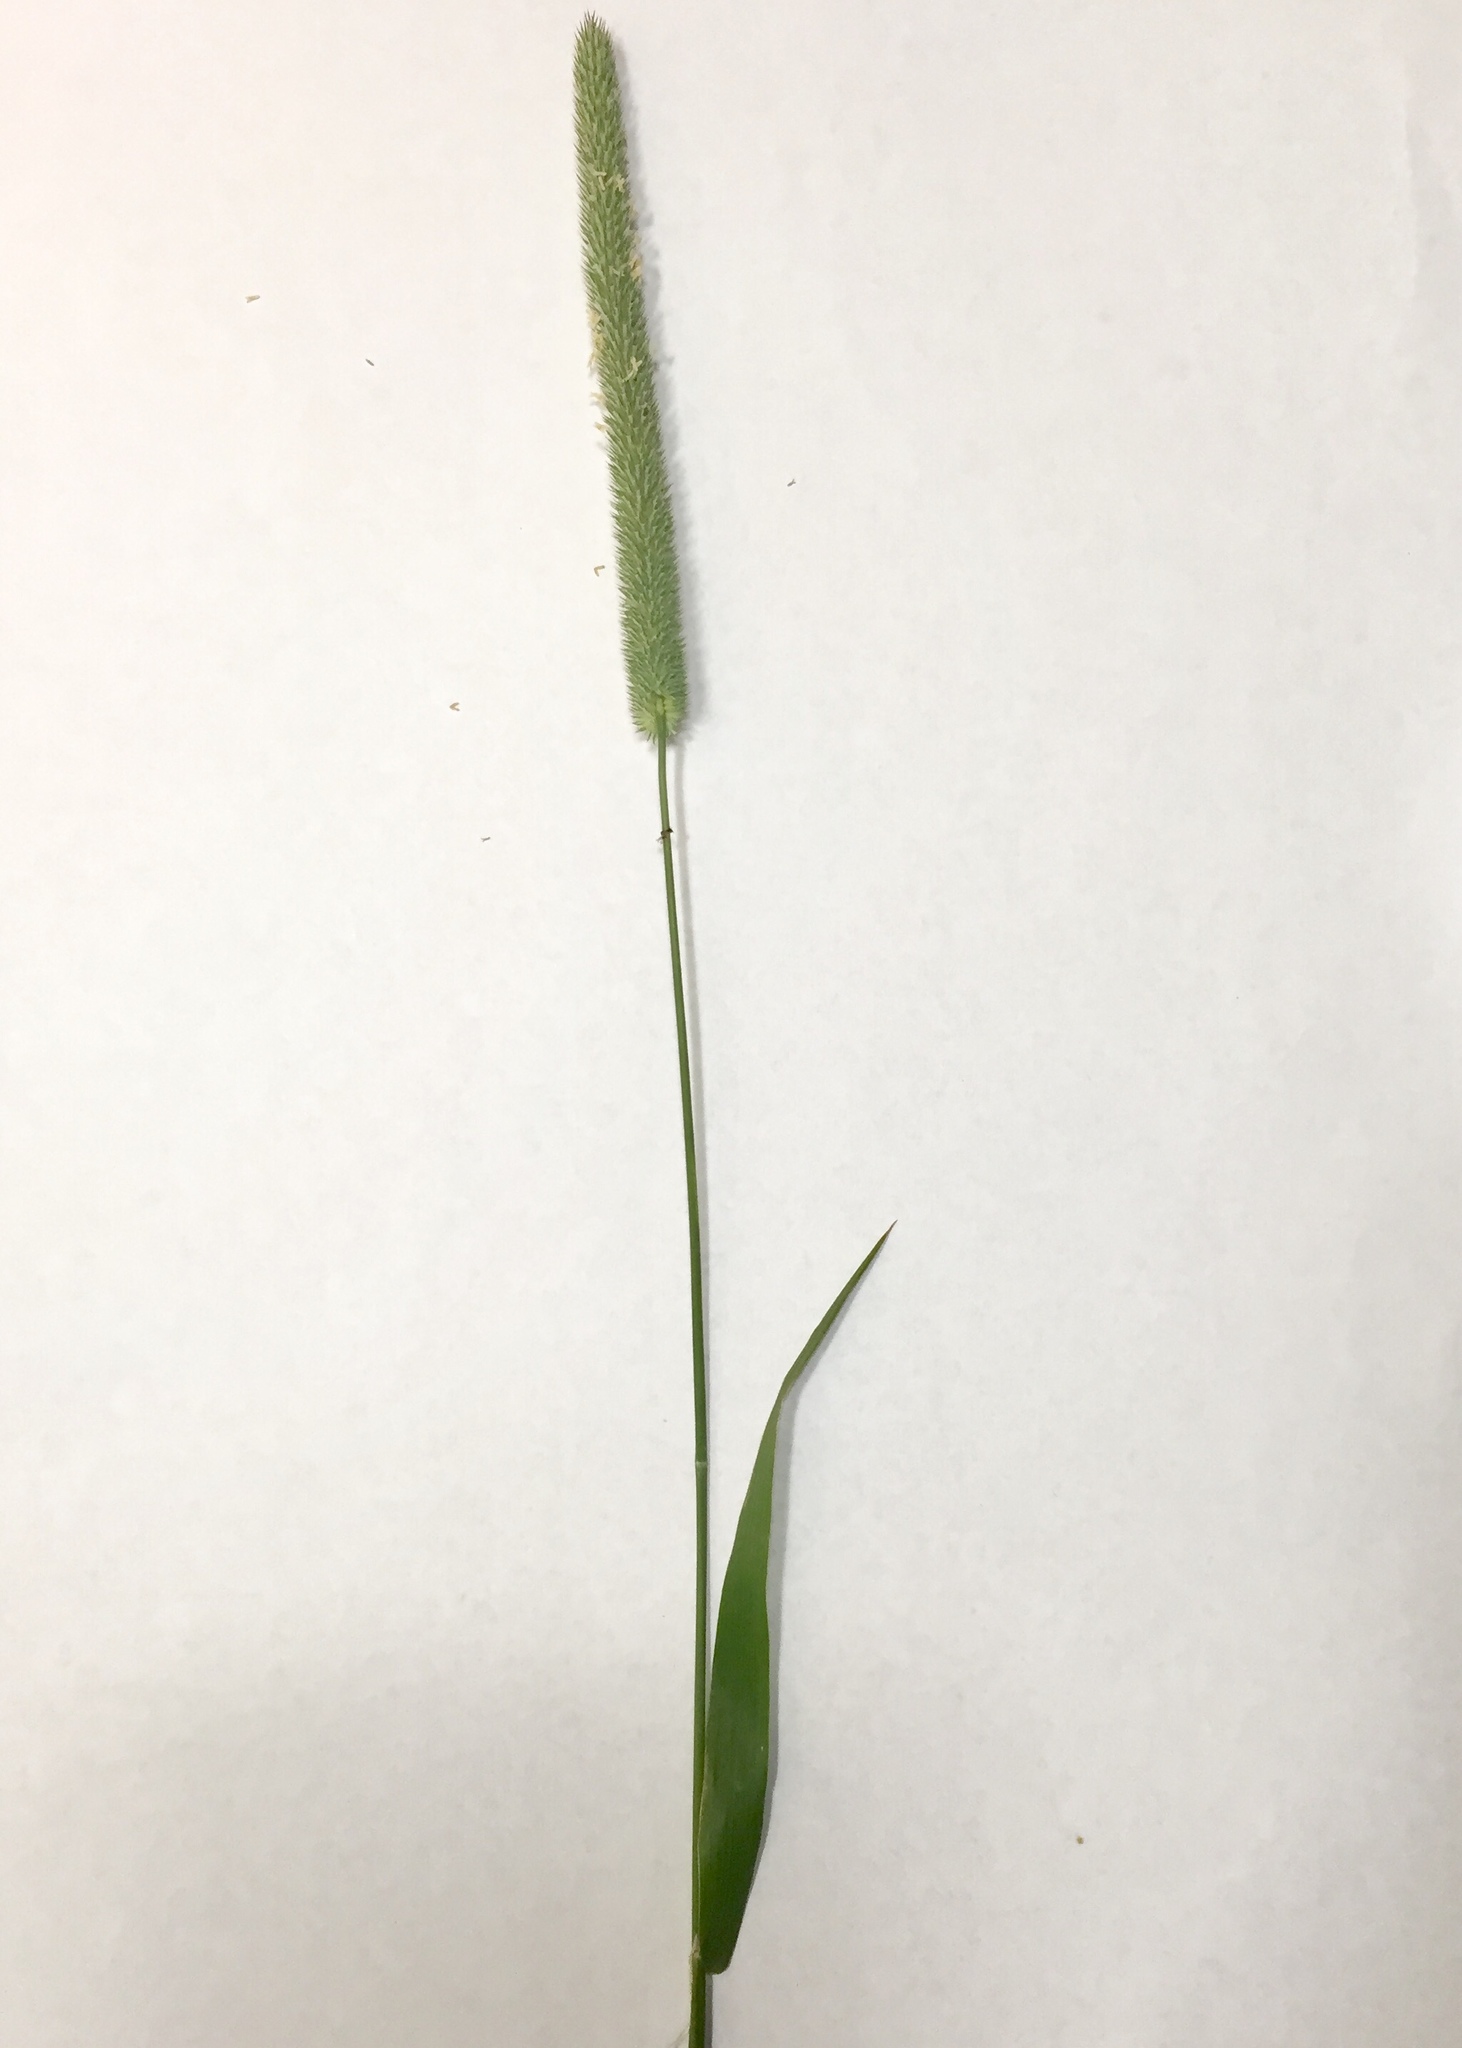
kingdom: Plantae
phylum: Tracheophyta
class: Liliopsida
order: Poales
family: Poaceae
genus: Phleum
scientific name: Phleum pratense
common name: Timothy grass
